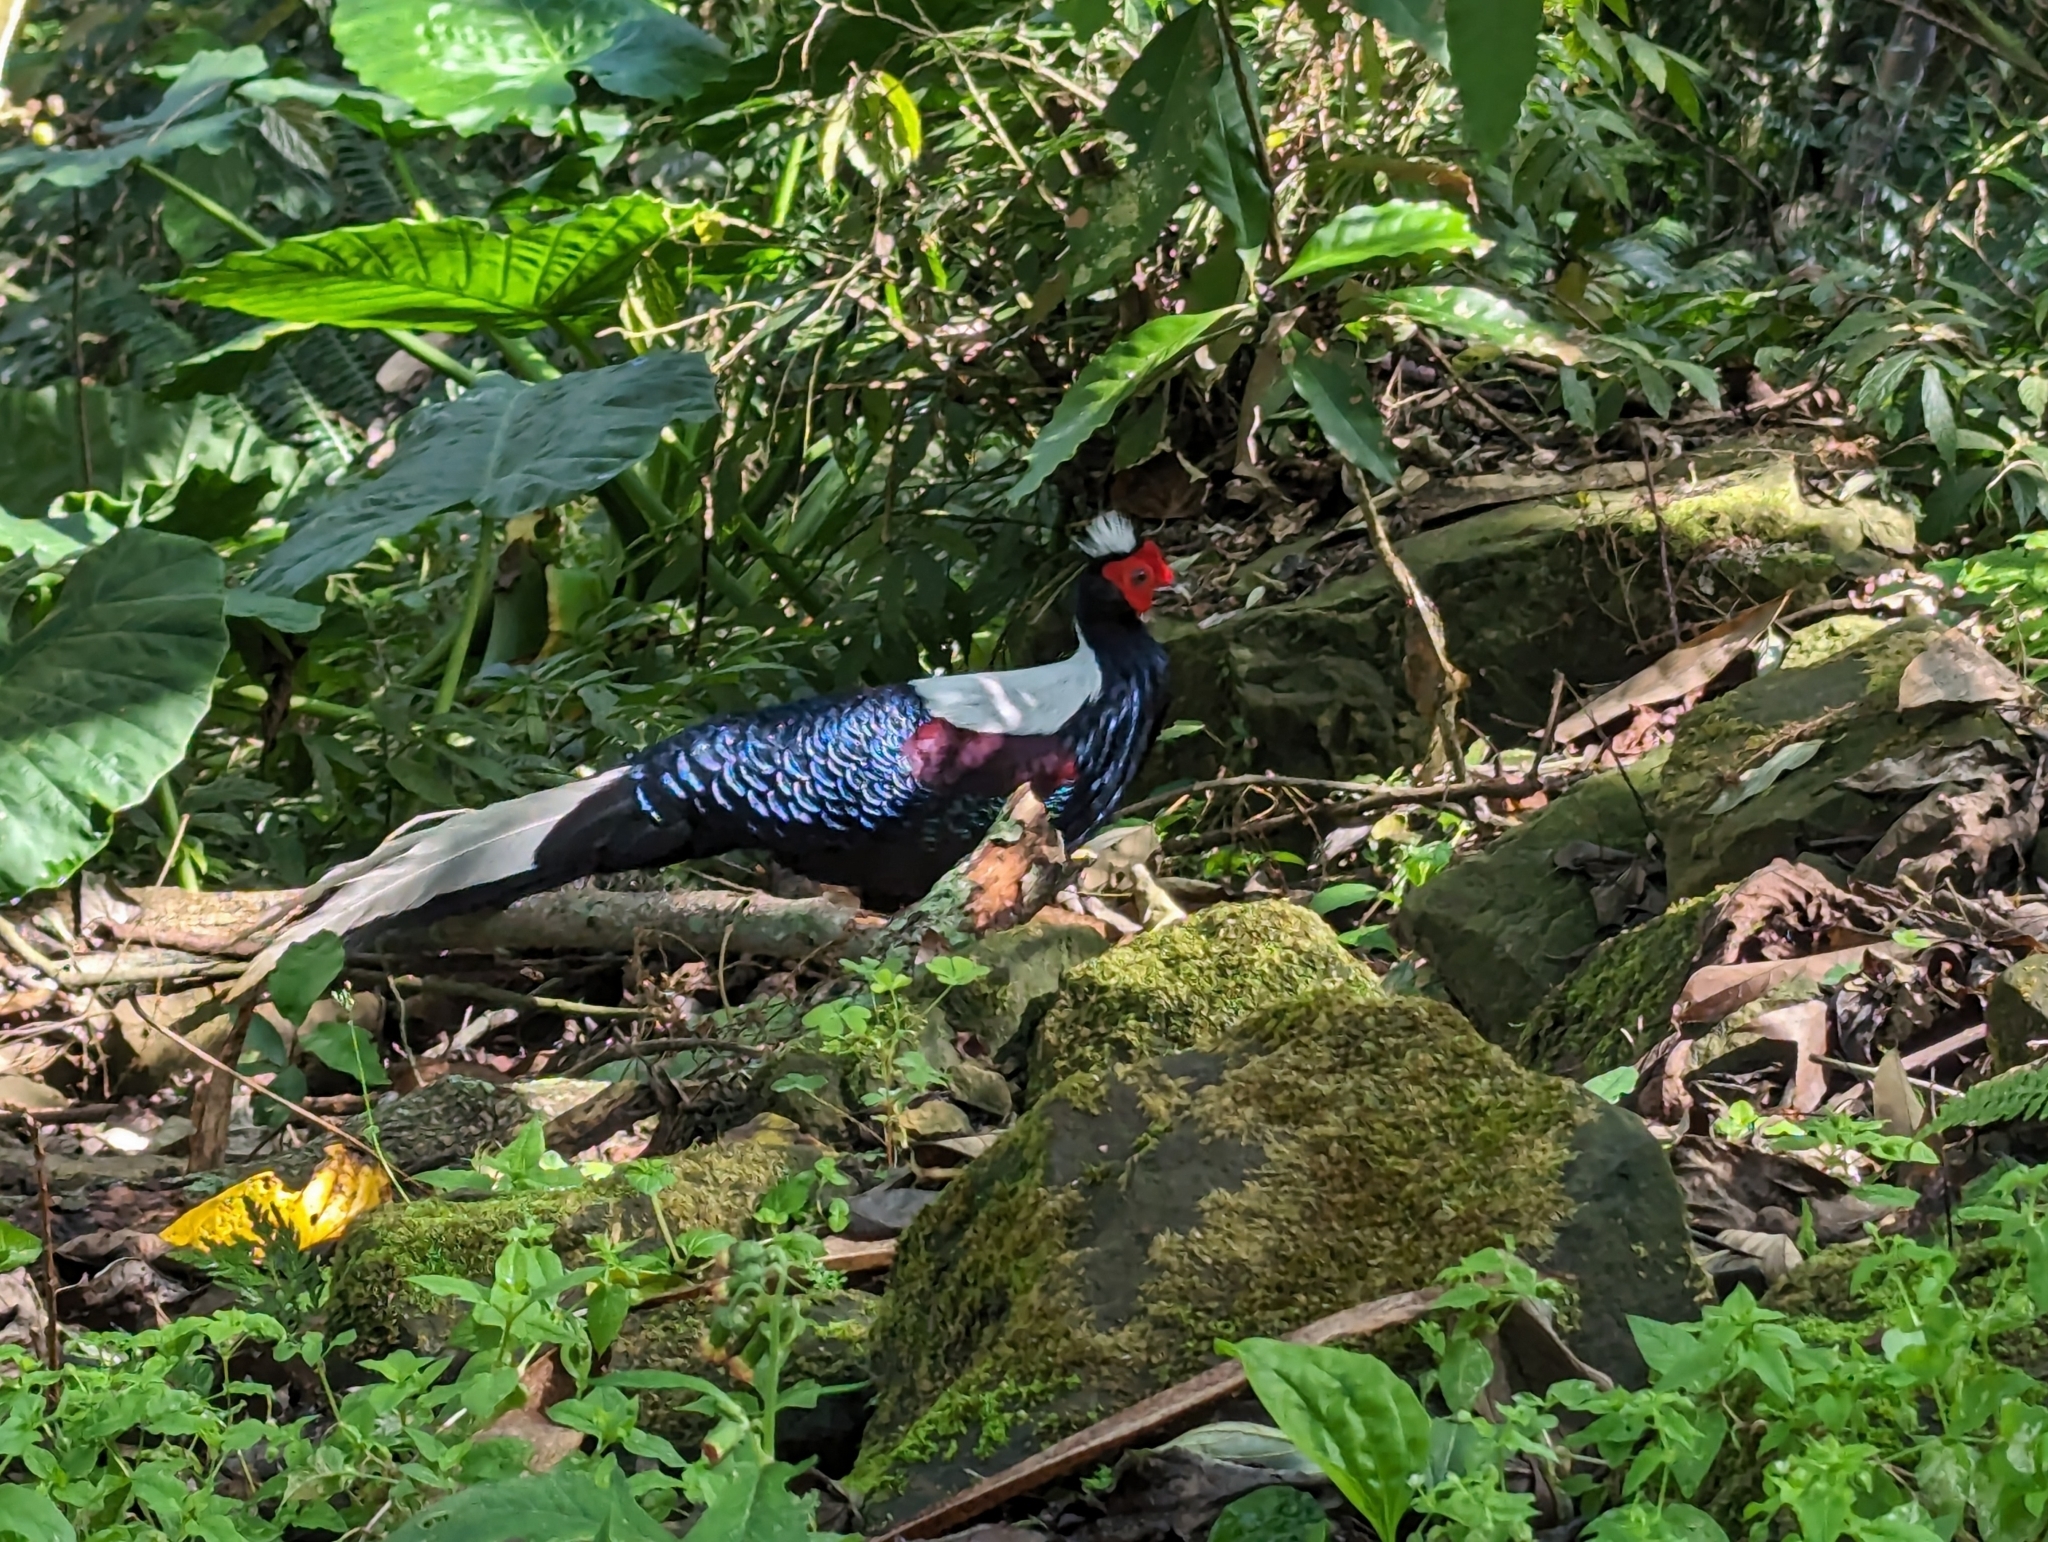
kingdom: Animalia
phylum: Chordata
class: Aves
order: Galliformes
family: Phasianidae
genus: Lophura
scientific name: Lophura swinhoii
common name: Swinhoe's pheasant
